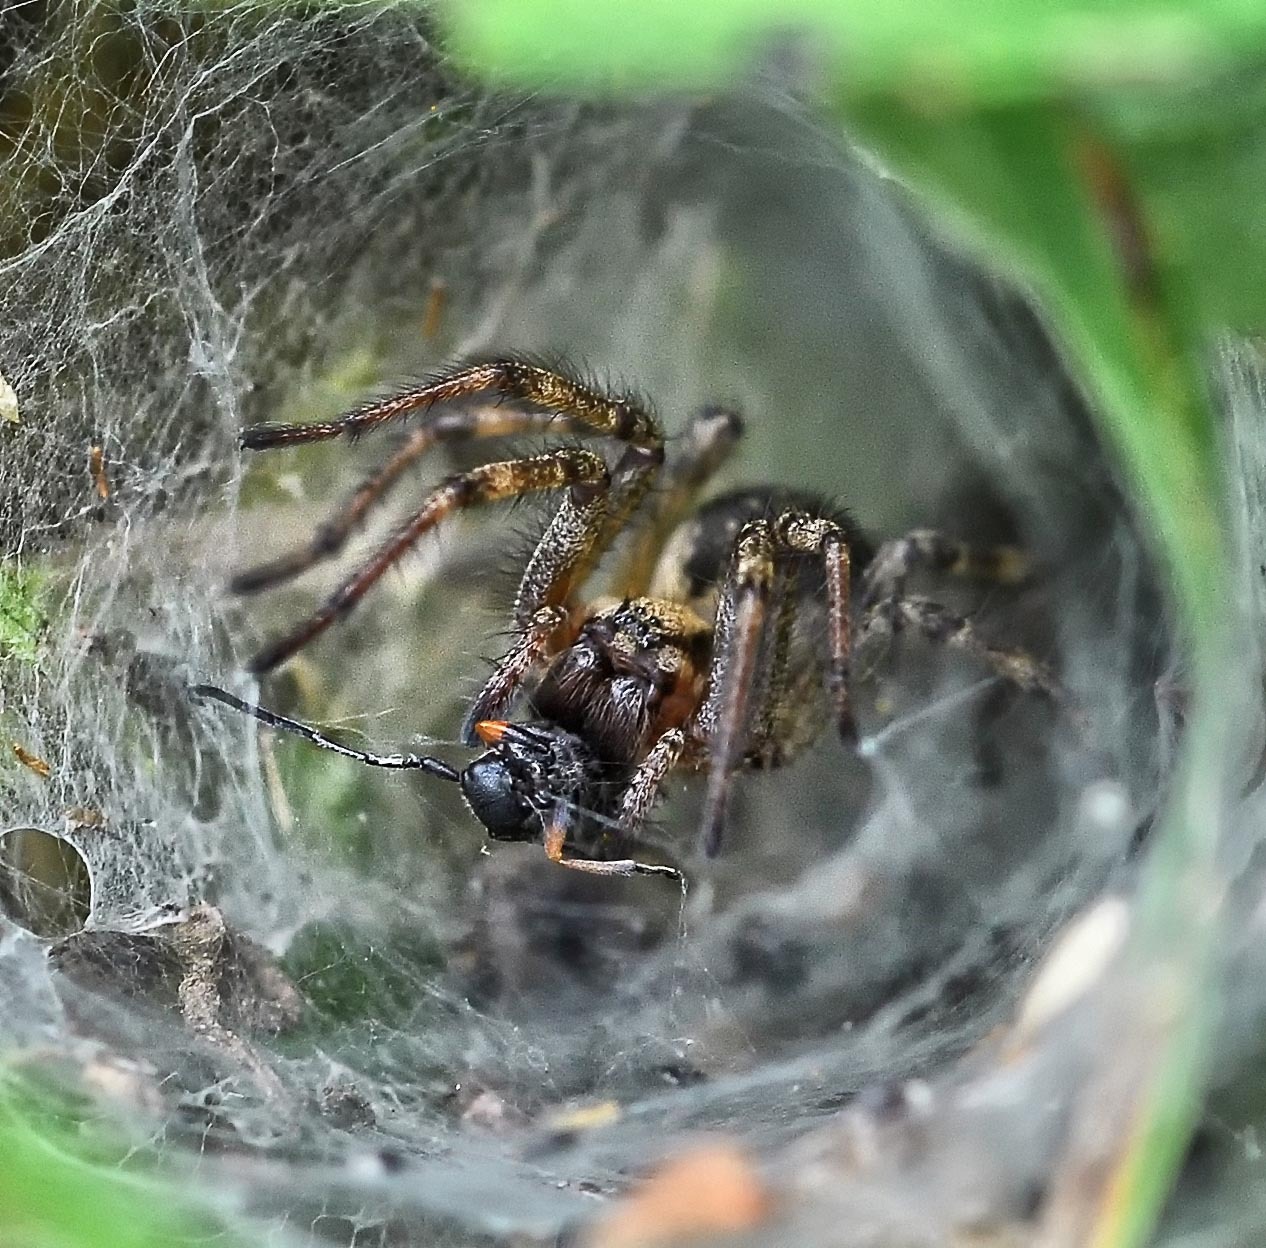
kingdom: Animalia
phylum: Arthropoda
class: Arachnida
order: Araneae
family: Agelenidae
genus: Agelena
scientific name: Agelena labyrinthica
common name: Labyrinth spider
